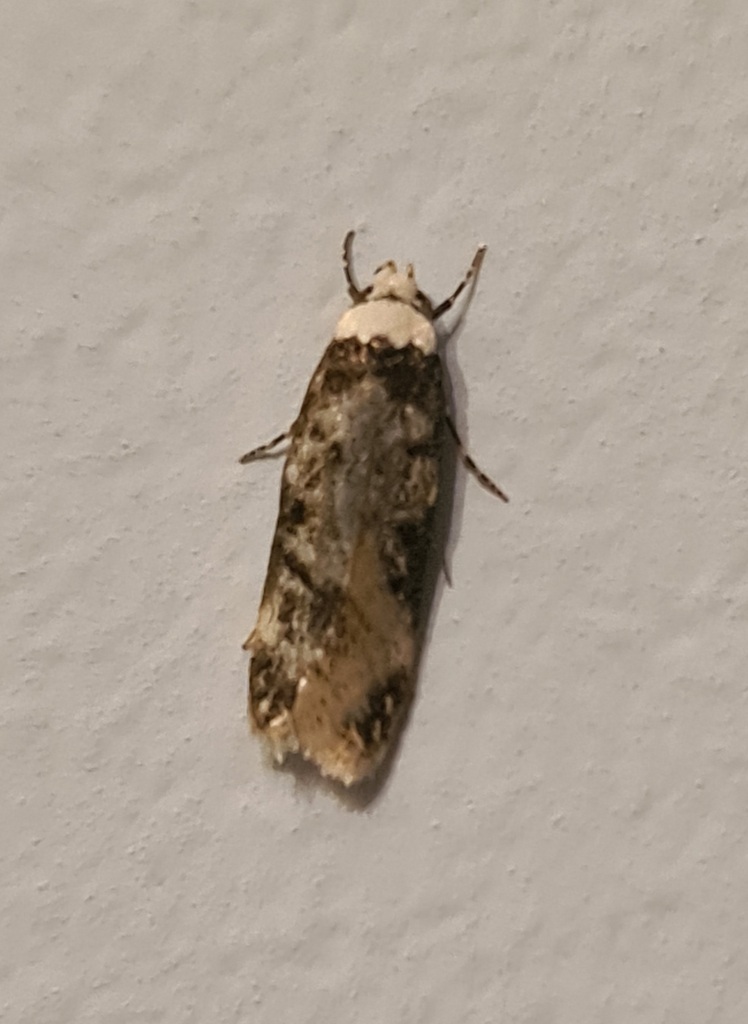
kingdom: Animalia
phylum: Arthropoda
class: Insecta
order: Lepidoptera
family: Oecophoridae
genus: Endrosis
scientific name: Endrosis sarcitrella
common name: White-shouldered house moth
